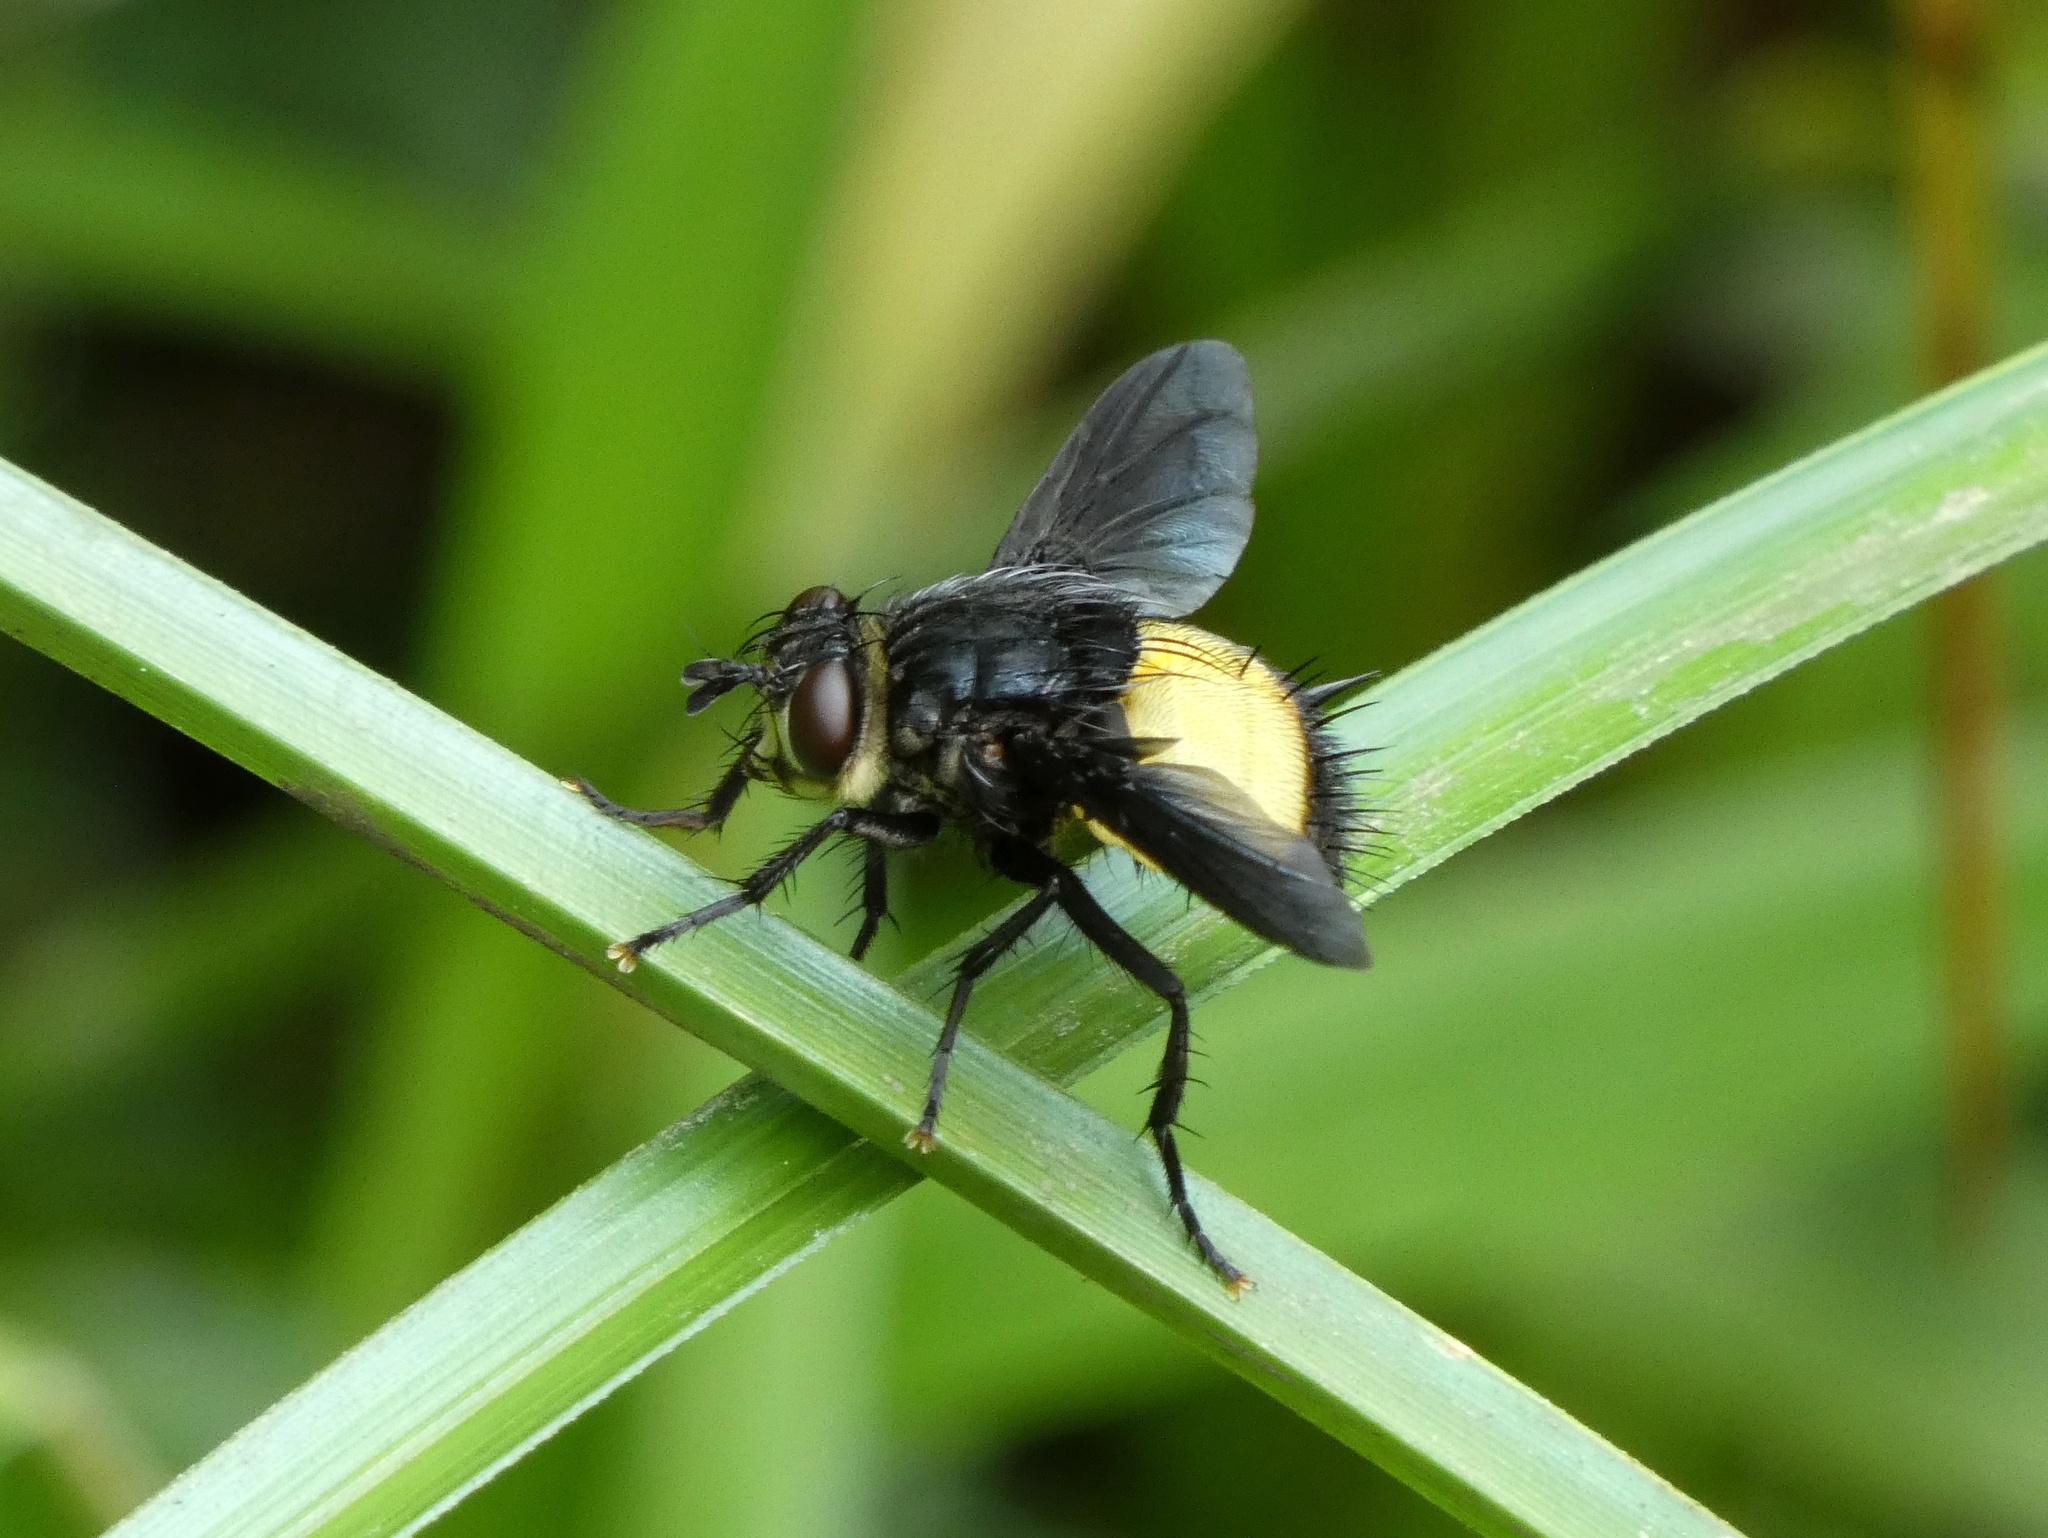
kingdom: Animalia
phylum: Arthropoda
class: Insecta
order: Diptera
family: Tachinidae
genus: Xanthozona
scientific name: Xanthozona melanopyga
